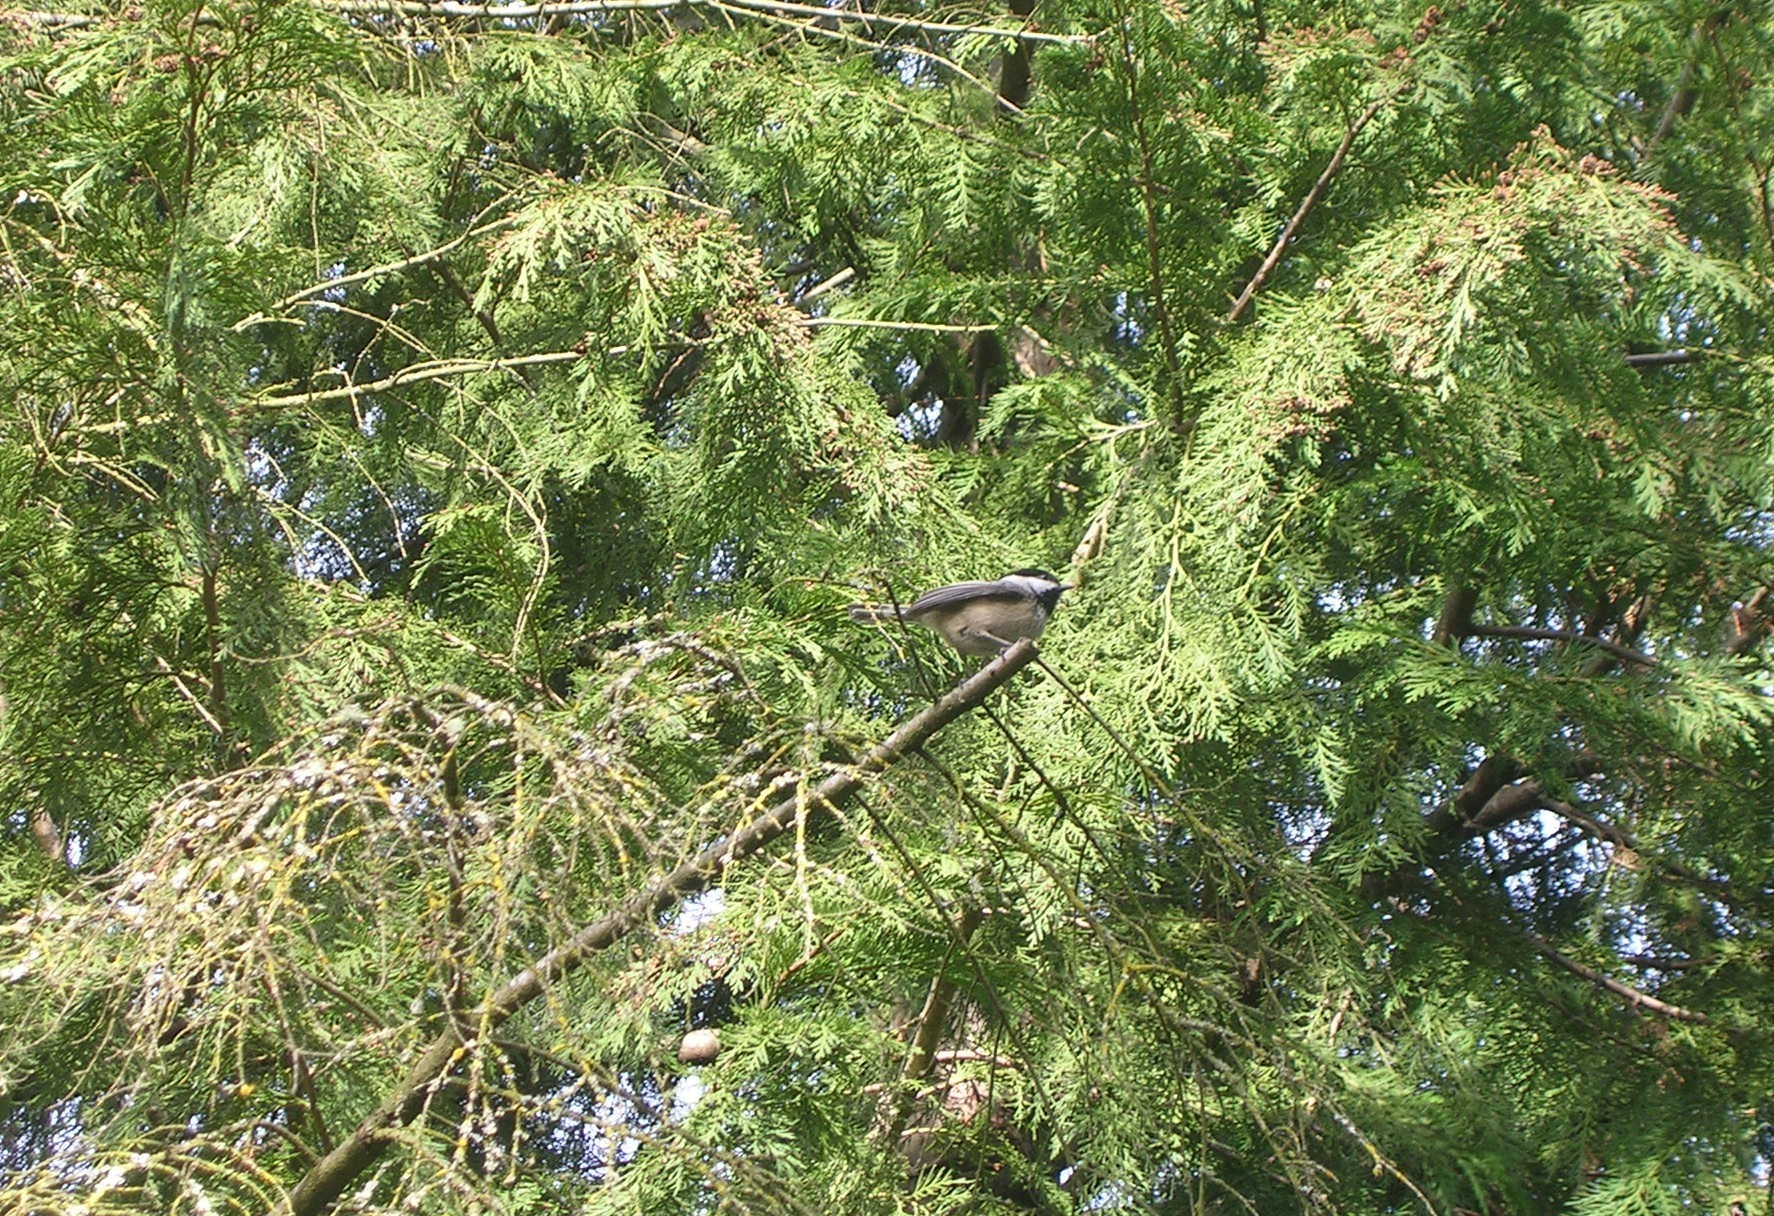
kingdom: Animalia
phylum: Chordata
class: Aves
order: Passeriformes
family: Paridae
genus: Poecile
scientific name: Poecile atricapillus
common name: Black-capped chickadee
